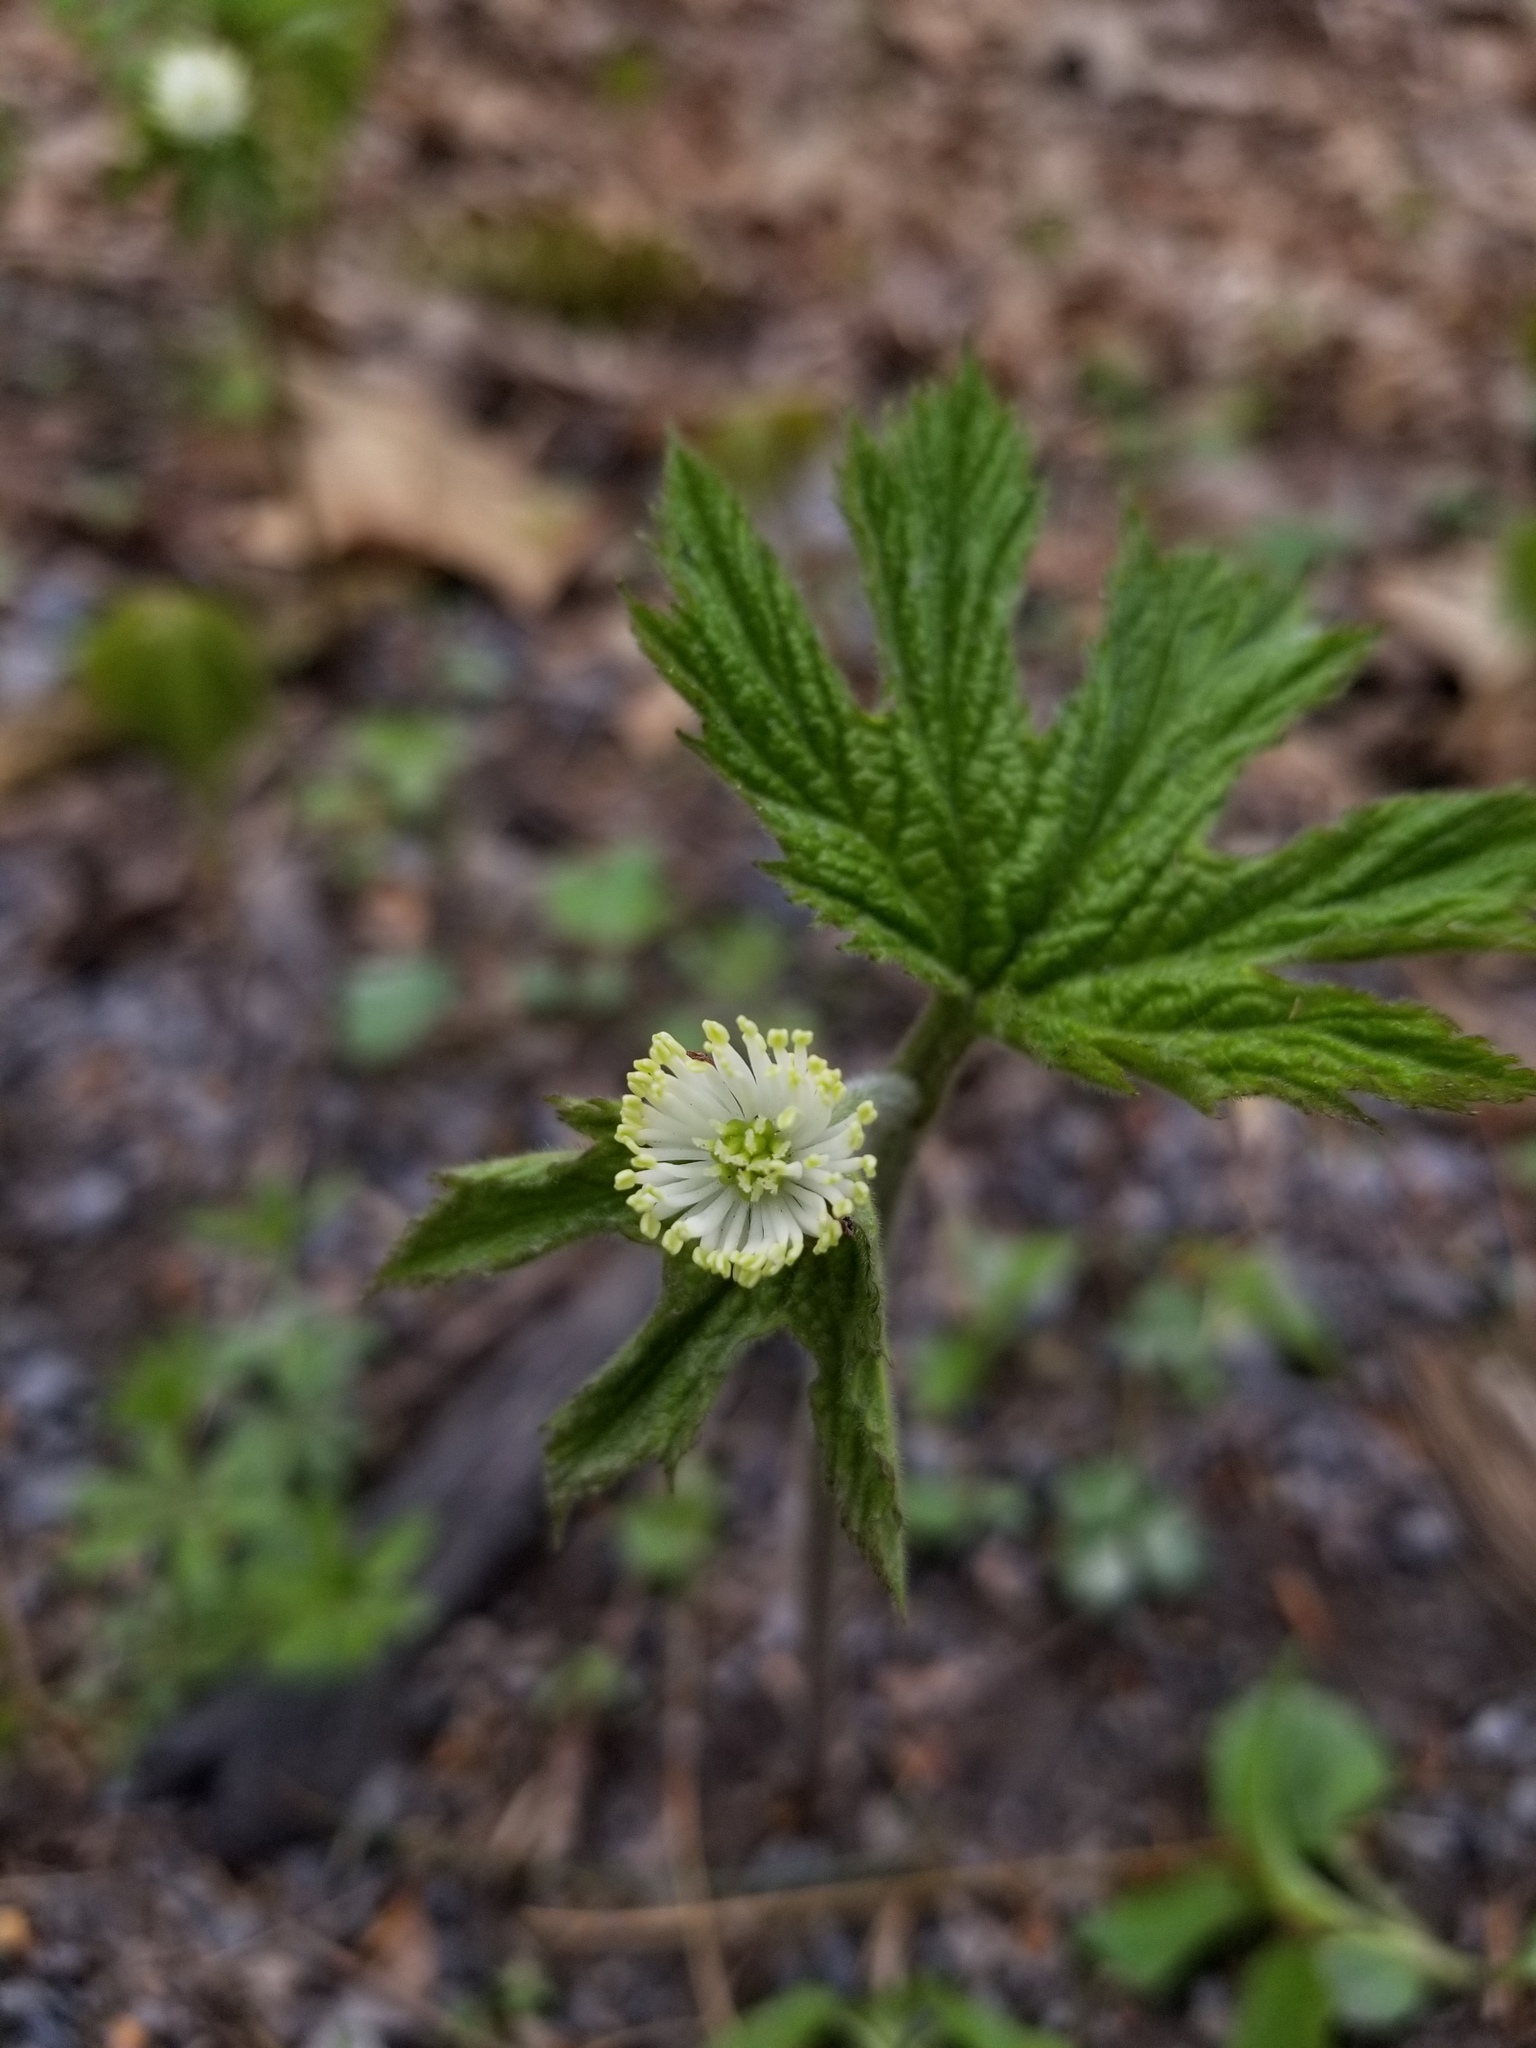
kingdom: Plantae
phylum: Tracheophyta
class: Magnoliopsida
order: Ranunculales
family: Ranunculaceae
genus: Hydrastis
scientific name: Hydrastis canadensis
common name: Goldenseal
